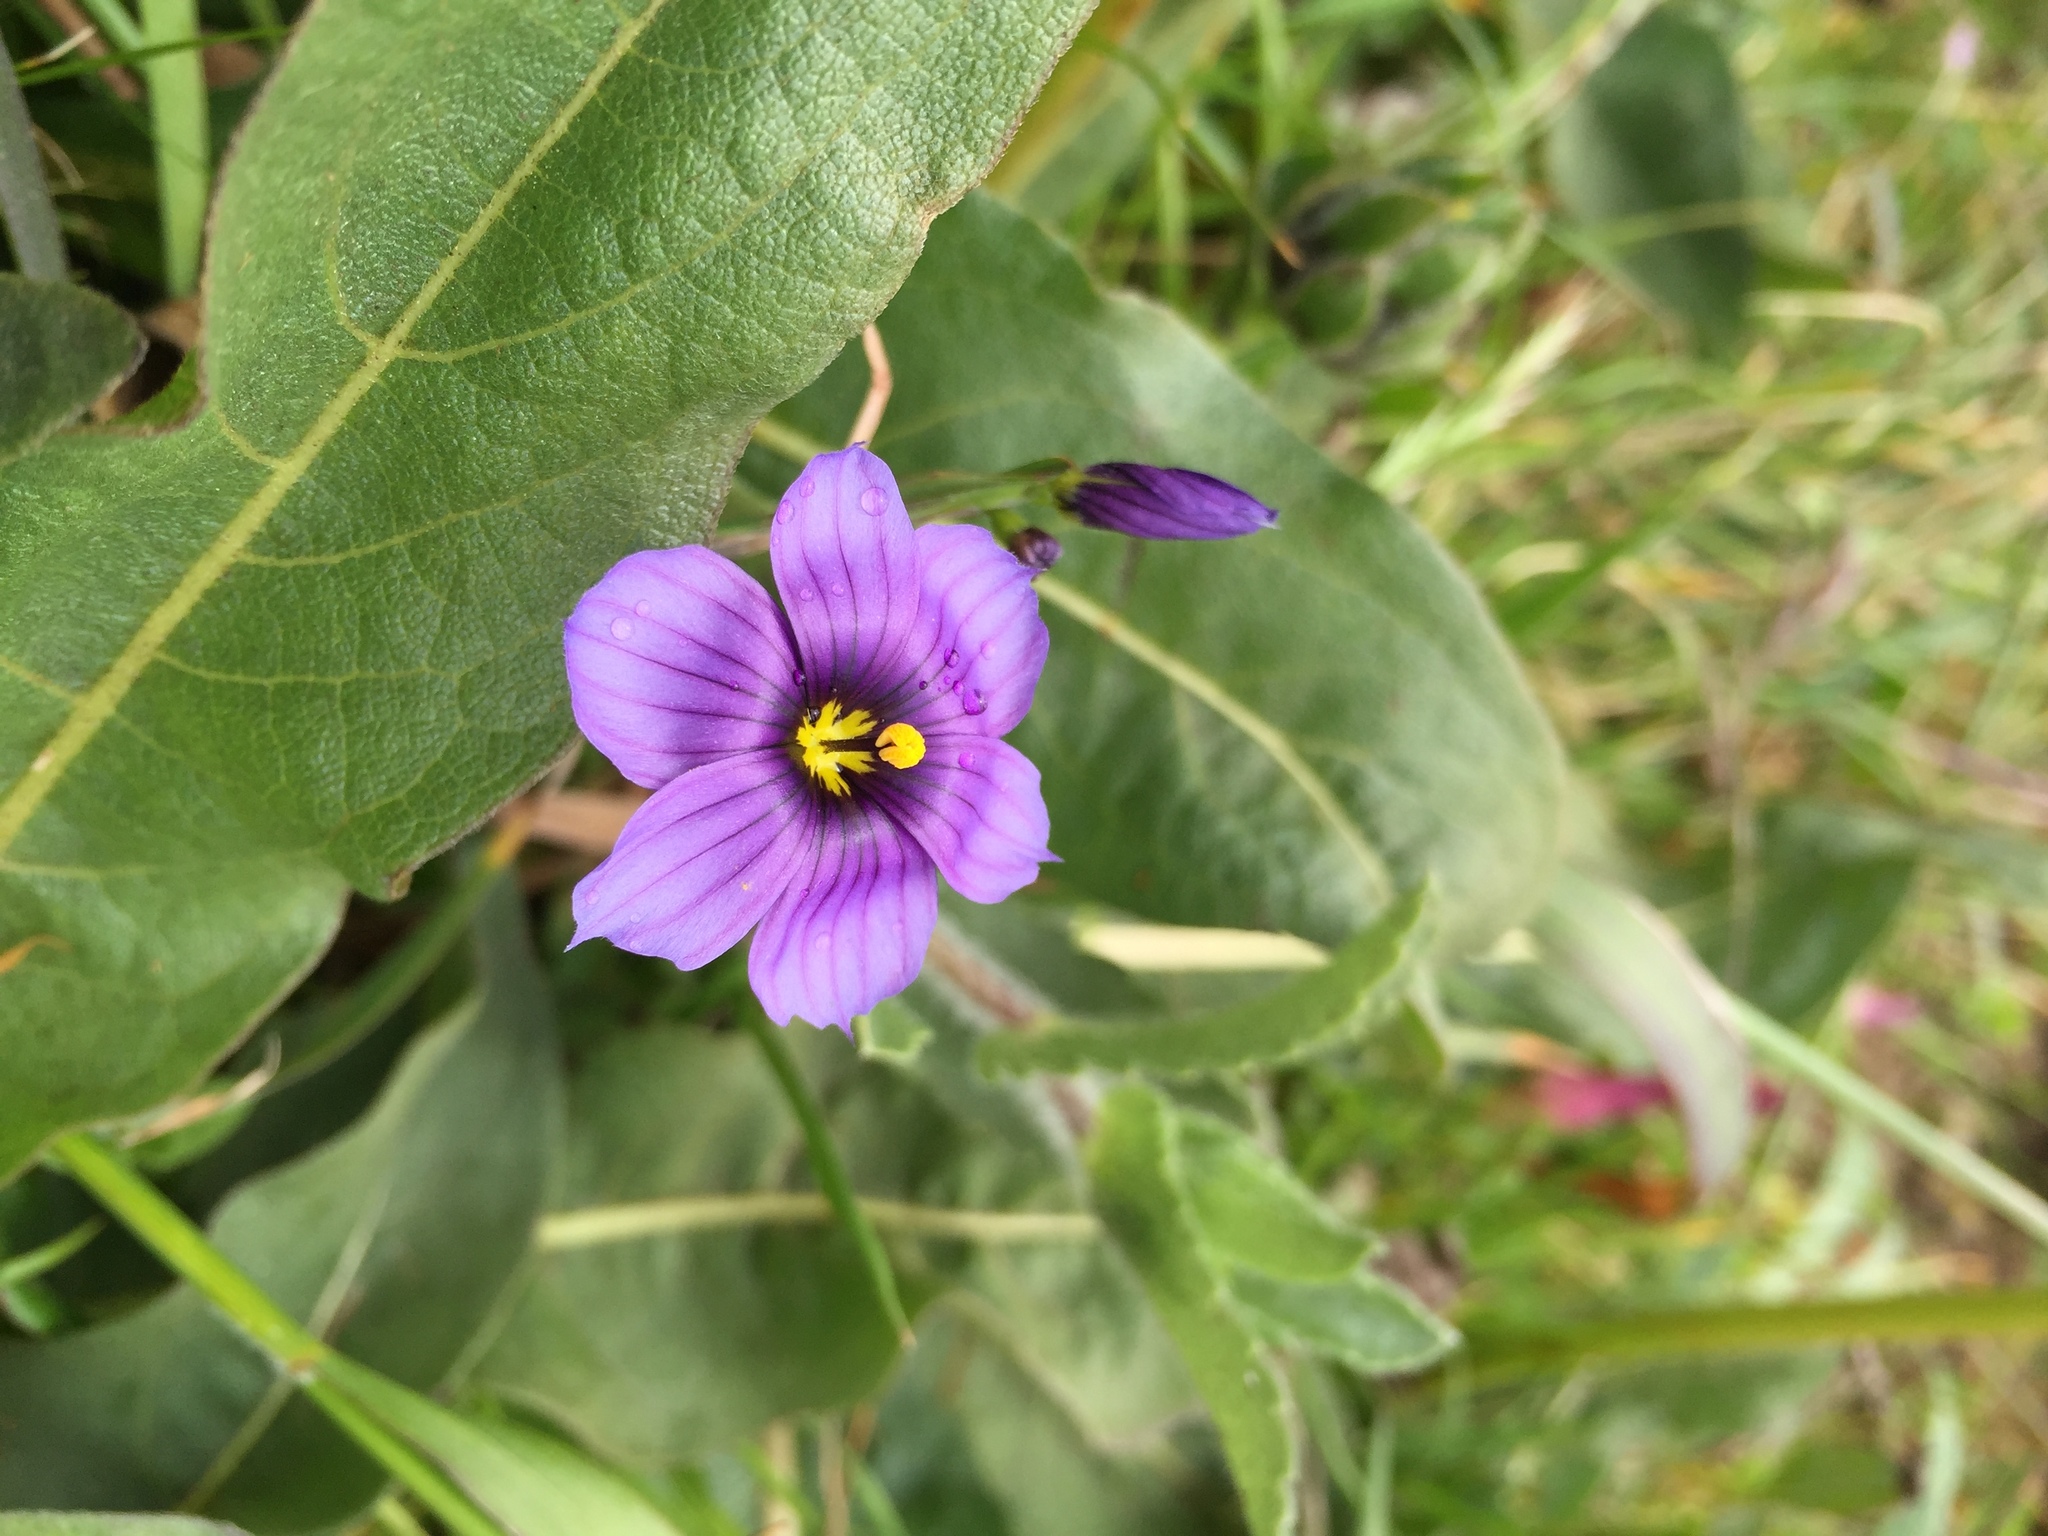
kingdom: Plantae
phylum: Tracheophyta
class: Liliopsida
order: Asparagales
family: Iridaceae
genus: Sisyrinchium
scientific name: Sisyrinchium bellum
